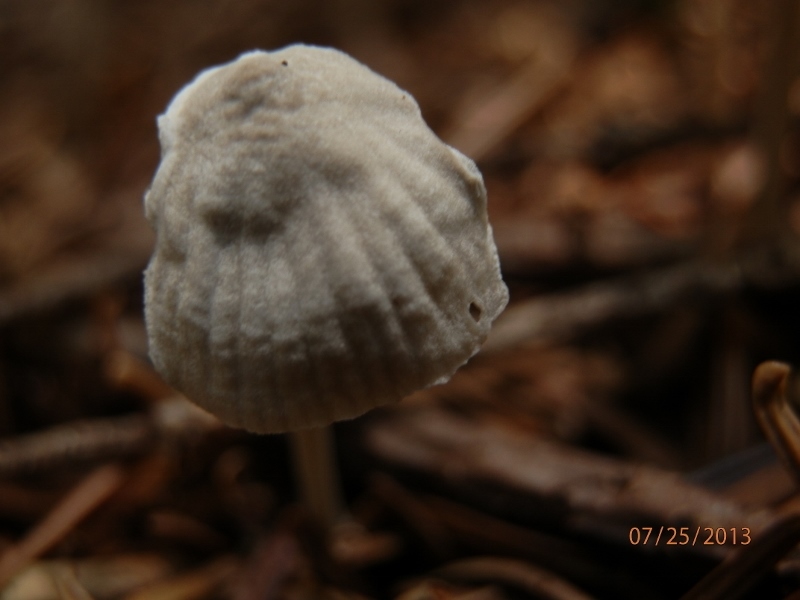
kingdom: Fungi
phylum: Basidiomycota
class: Agaricomycetes
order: Agaricales
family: Mycenaceae
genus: Mycena
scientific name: Mycena clavicularis
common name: Needle bonnet
